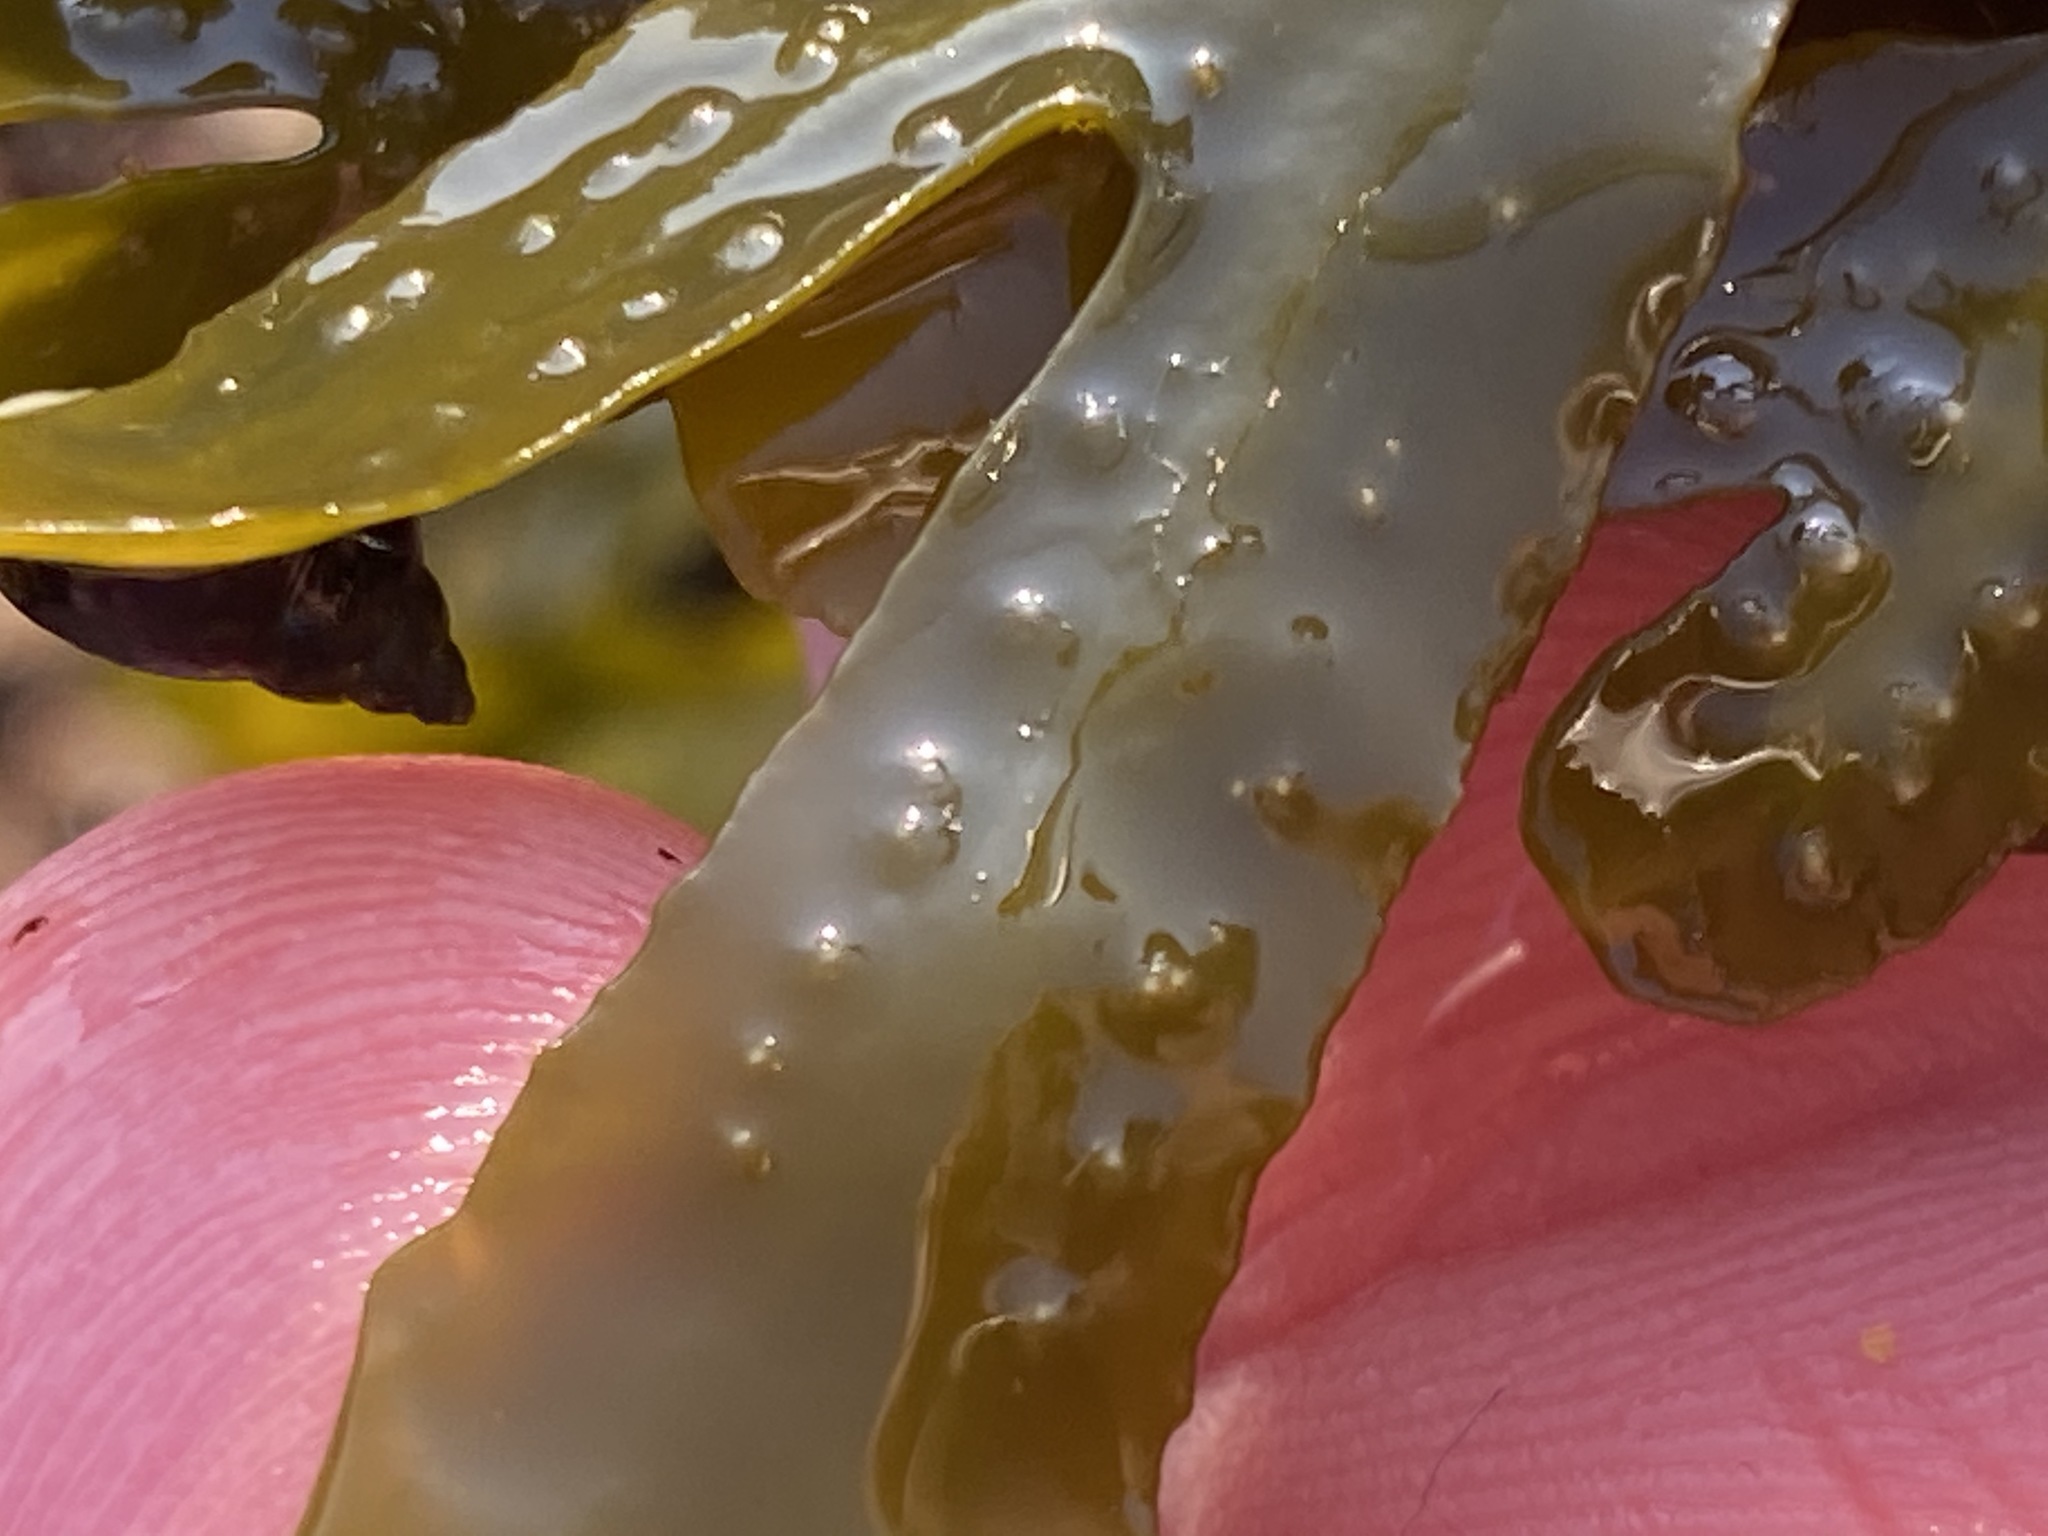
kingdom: Chromista
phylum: Ochrophyta
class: Phaeophyceae
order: Fucales
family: Fucaceae
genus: Pelvetiopsis
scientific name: Pelvetiopsis
